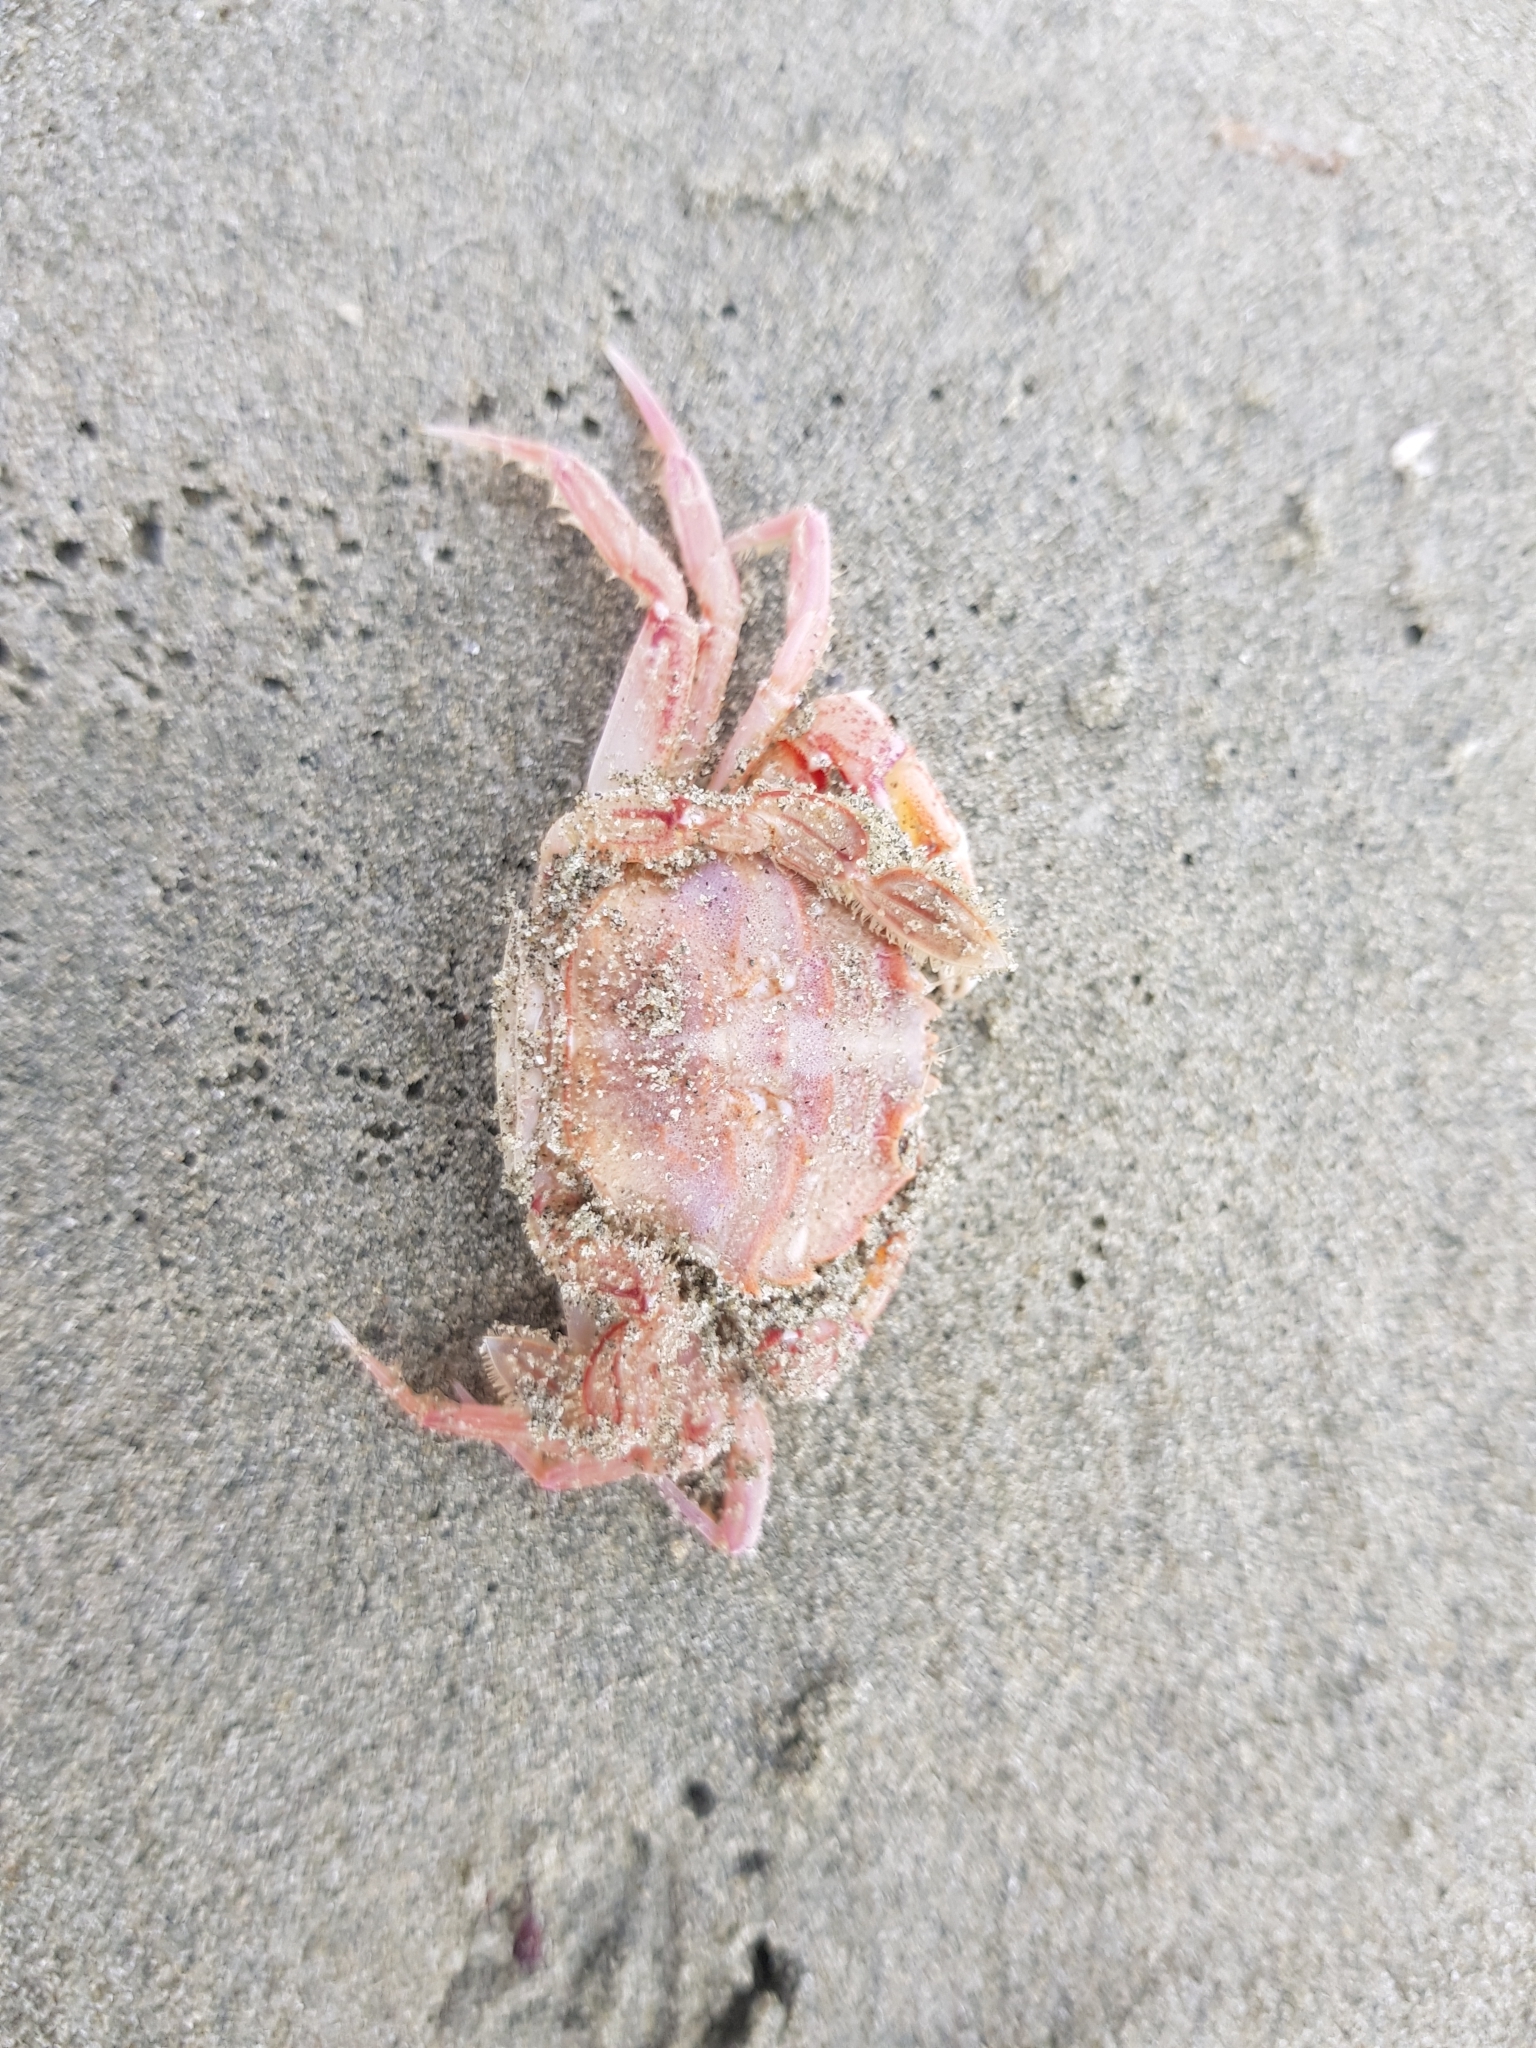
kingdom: Animalia
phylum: Arthropoda
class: Malacostraca
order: Decapoda
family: Geryonidae
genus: Nectocarcinus
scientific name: Nectocarcinus antarcticus
